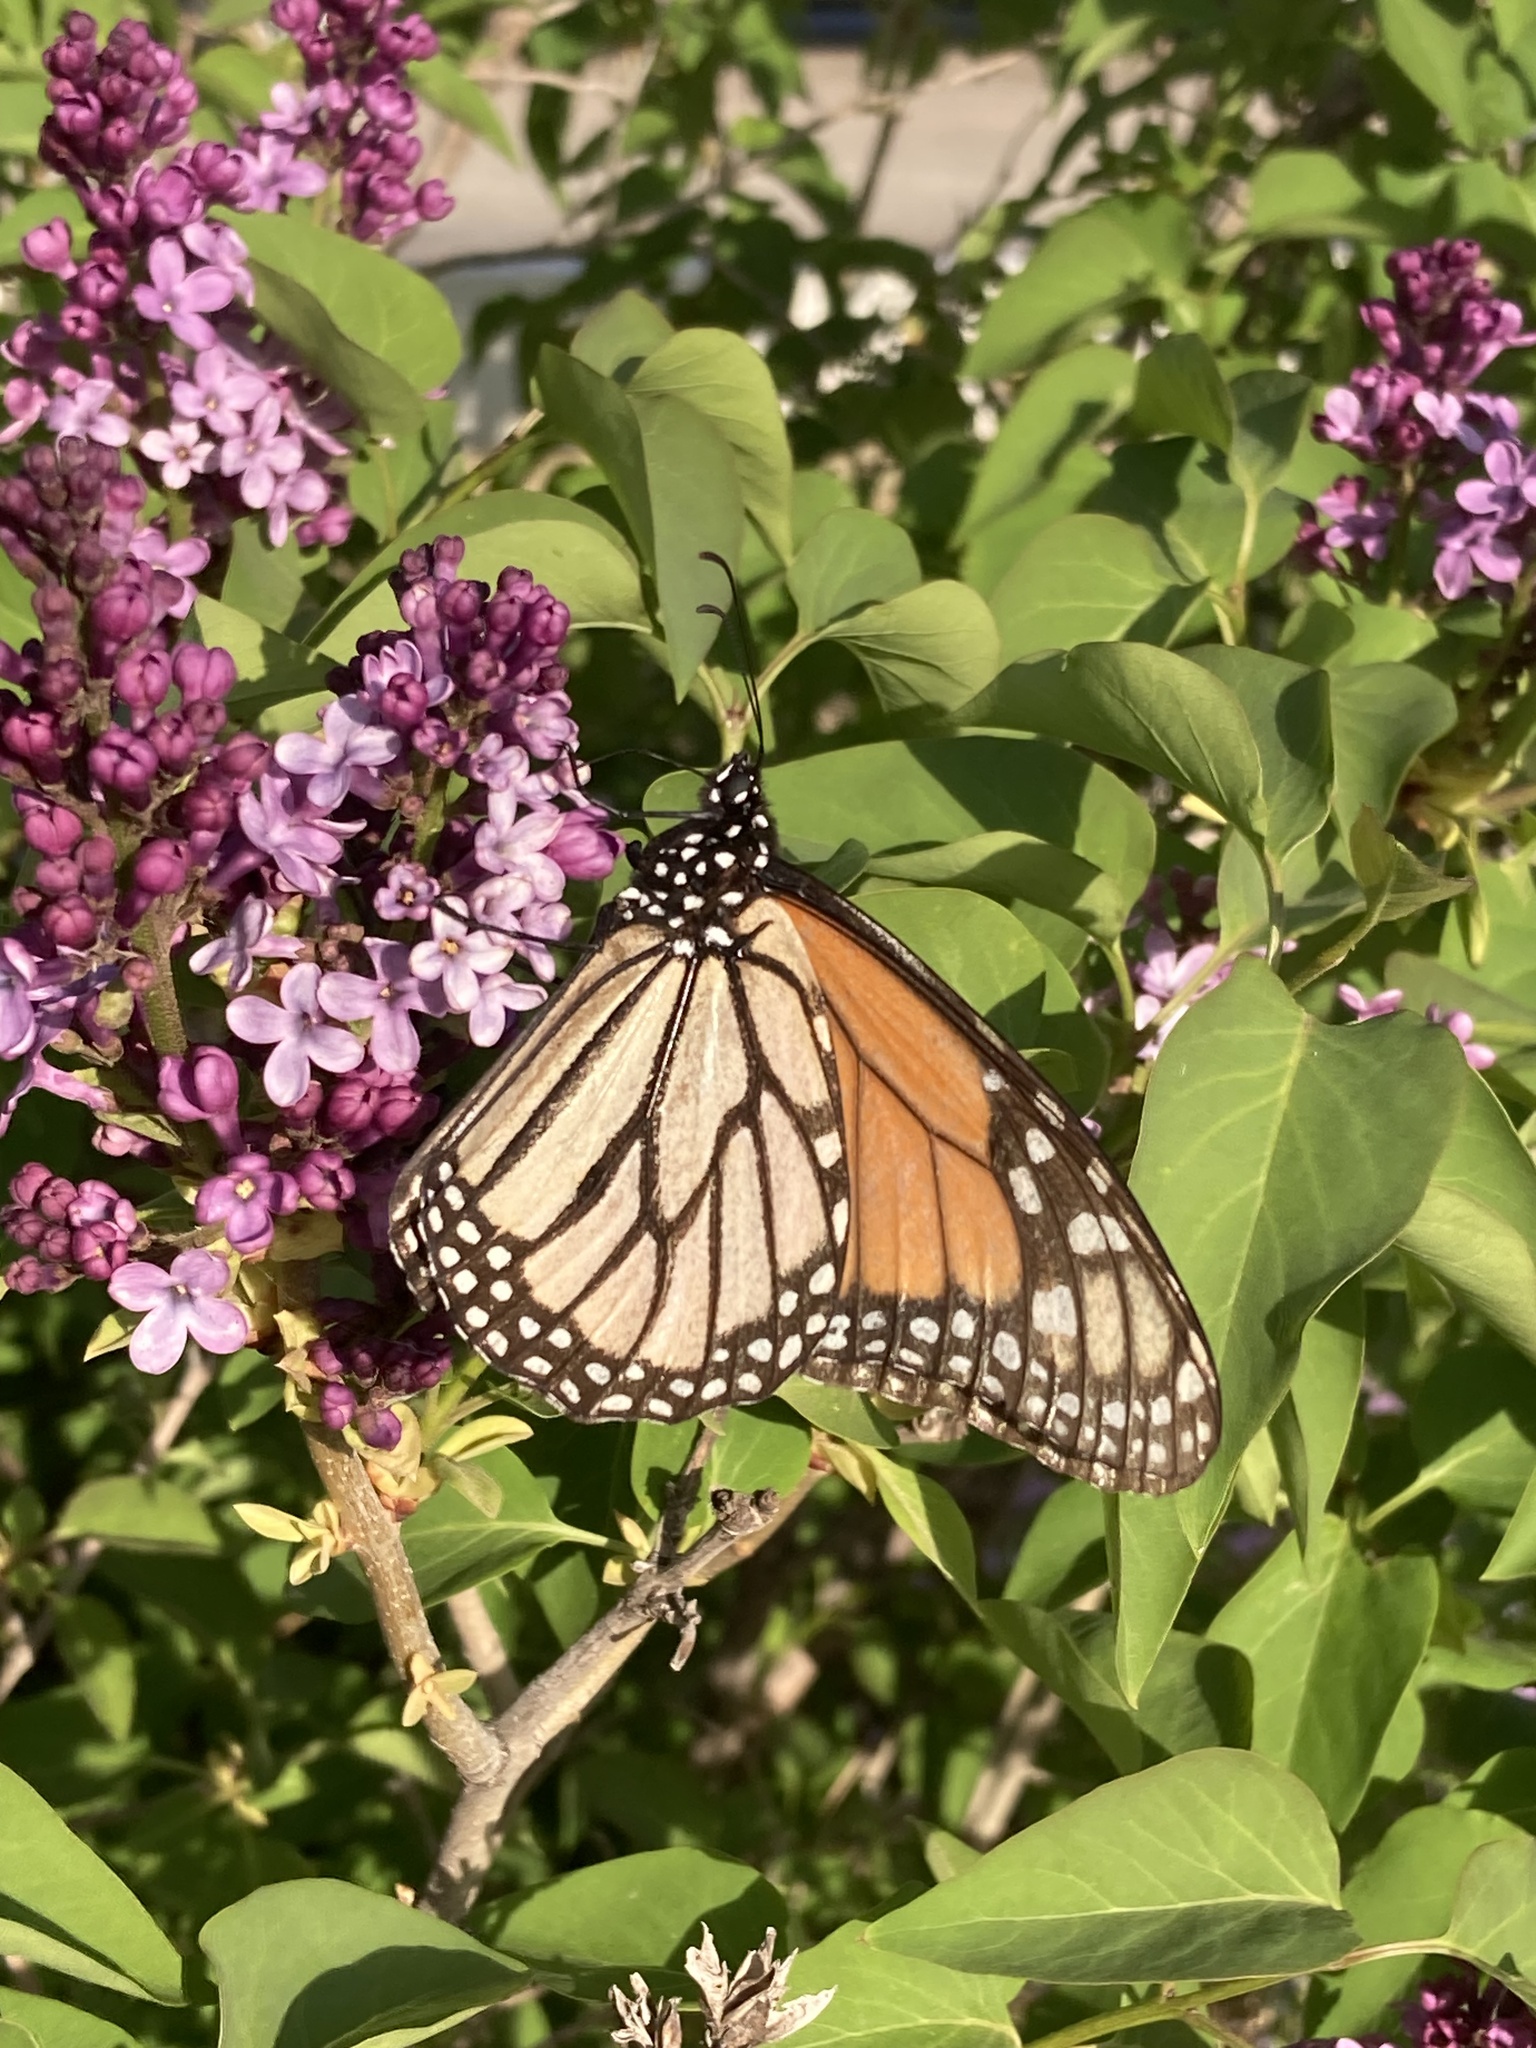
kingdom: Animalia
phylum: Arthropoda
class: Insecta
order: Lepidoptera
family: Nymphalidae
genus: Danaus
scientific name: Danaus plexippus
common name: Monarch
